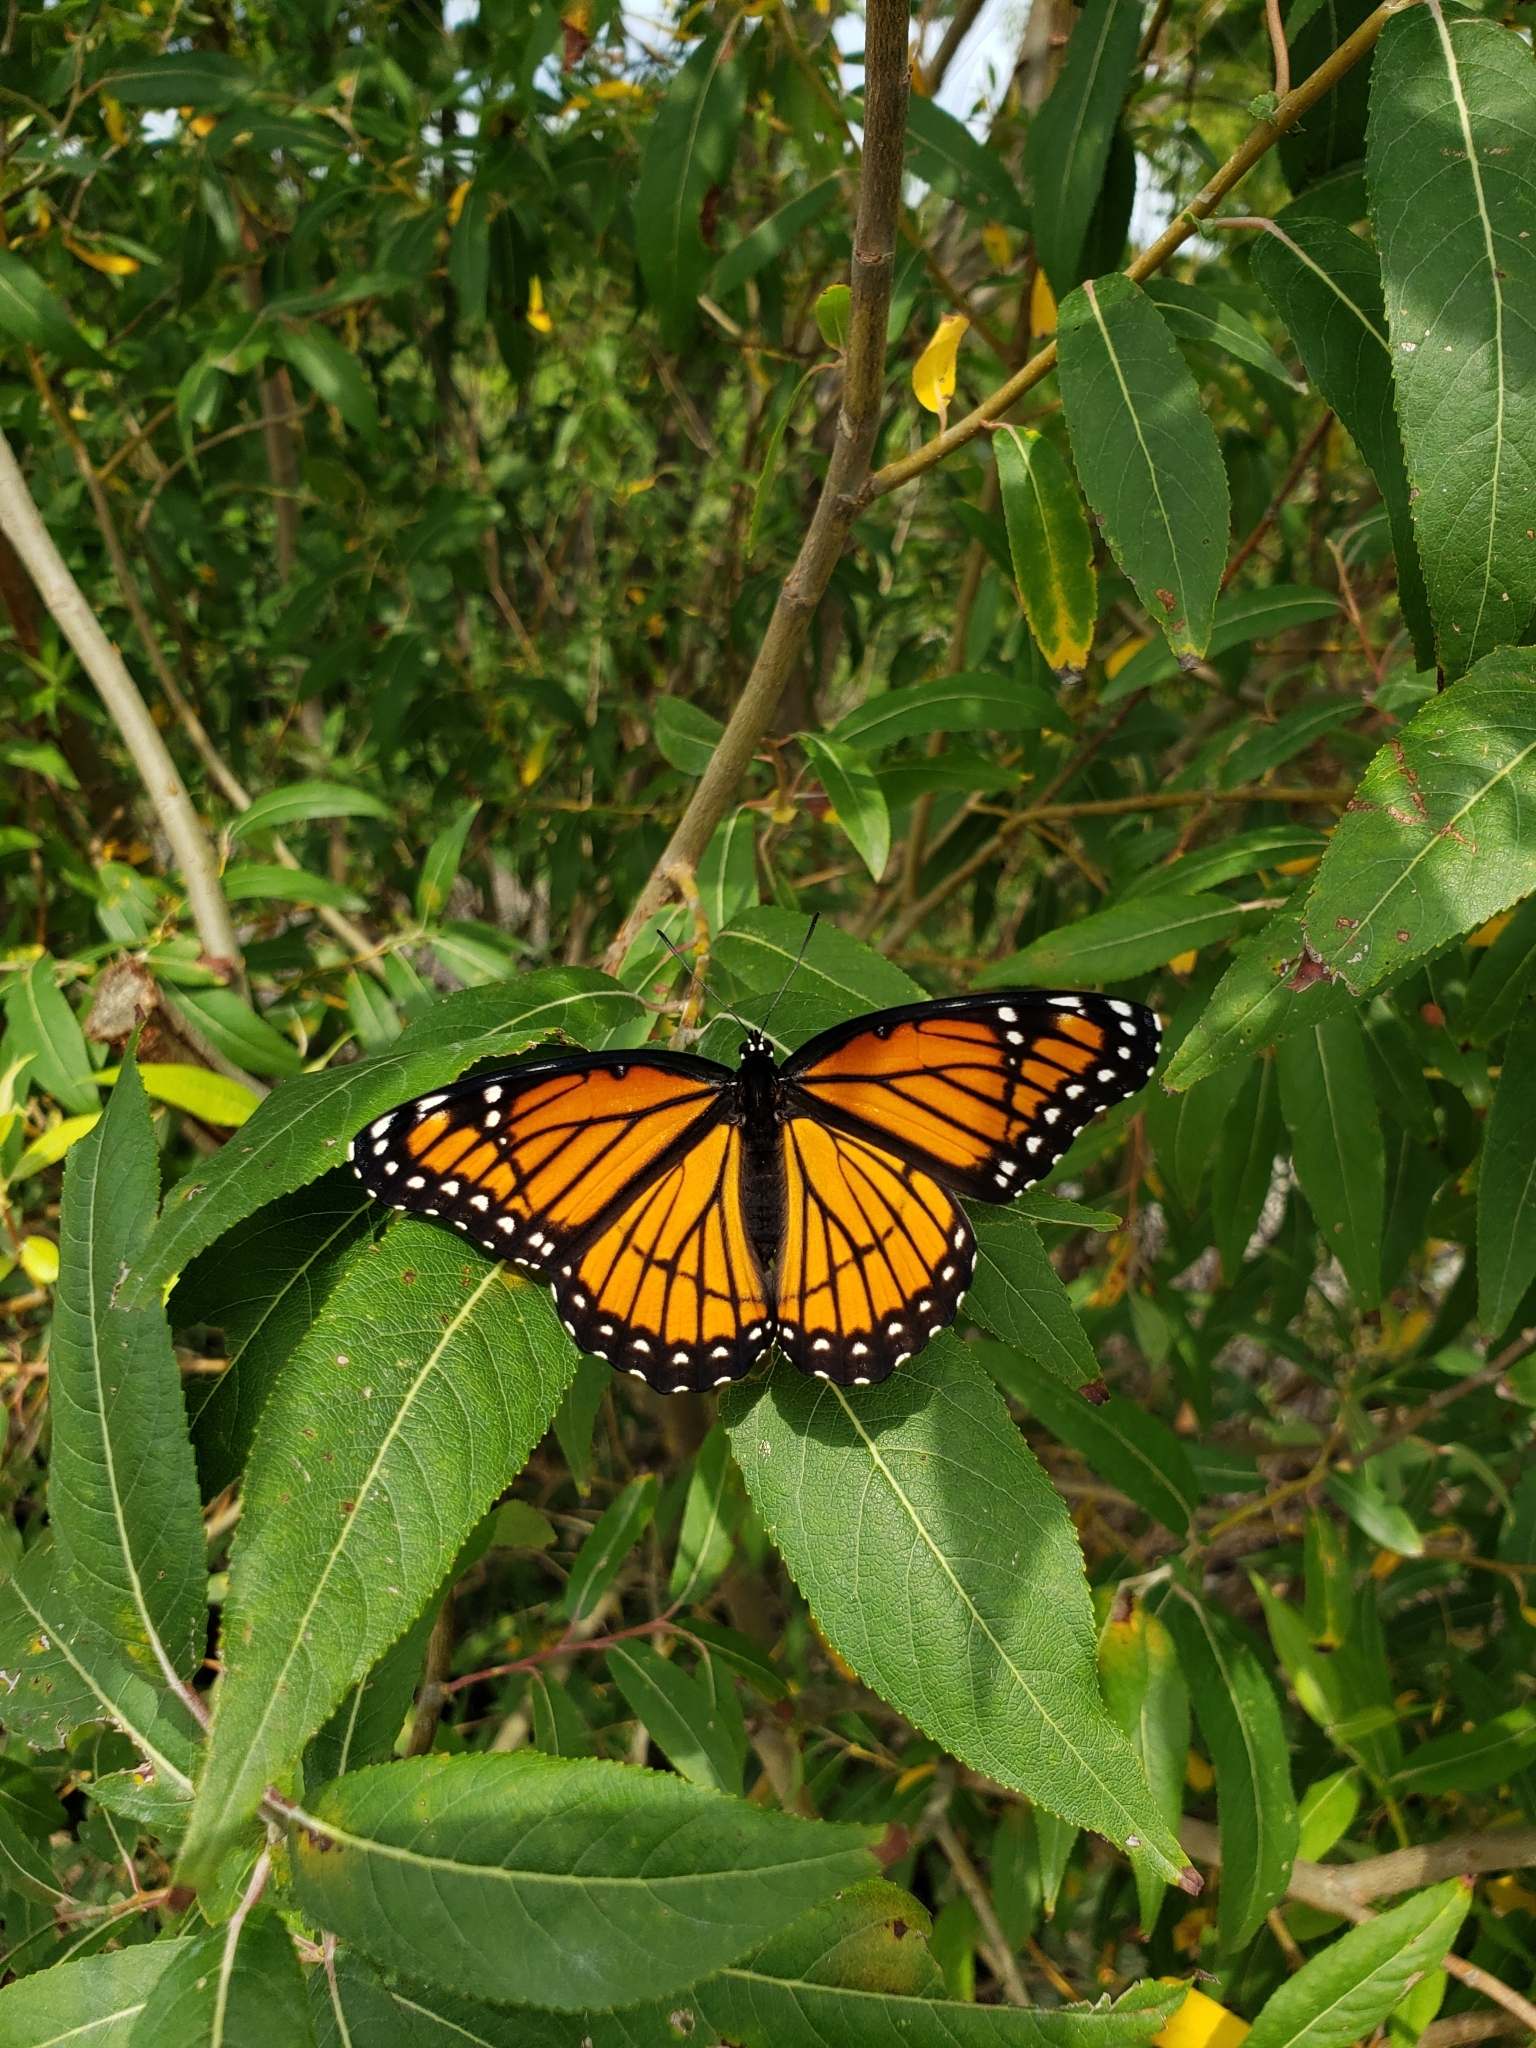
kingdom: Animalia
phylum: Arthropoda
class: Insecta
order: Lepidoptera
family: Nymphalidae
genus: Limenitis
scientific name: Limenitis archippus
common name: Viceroy
